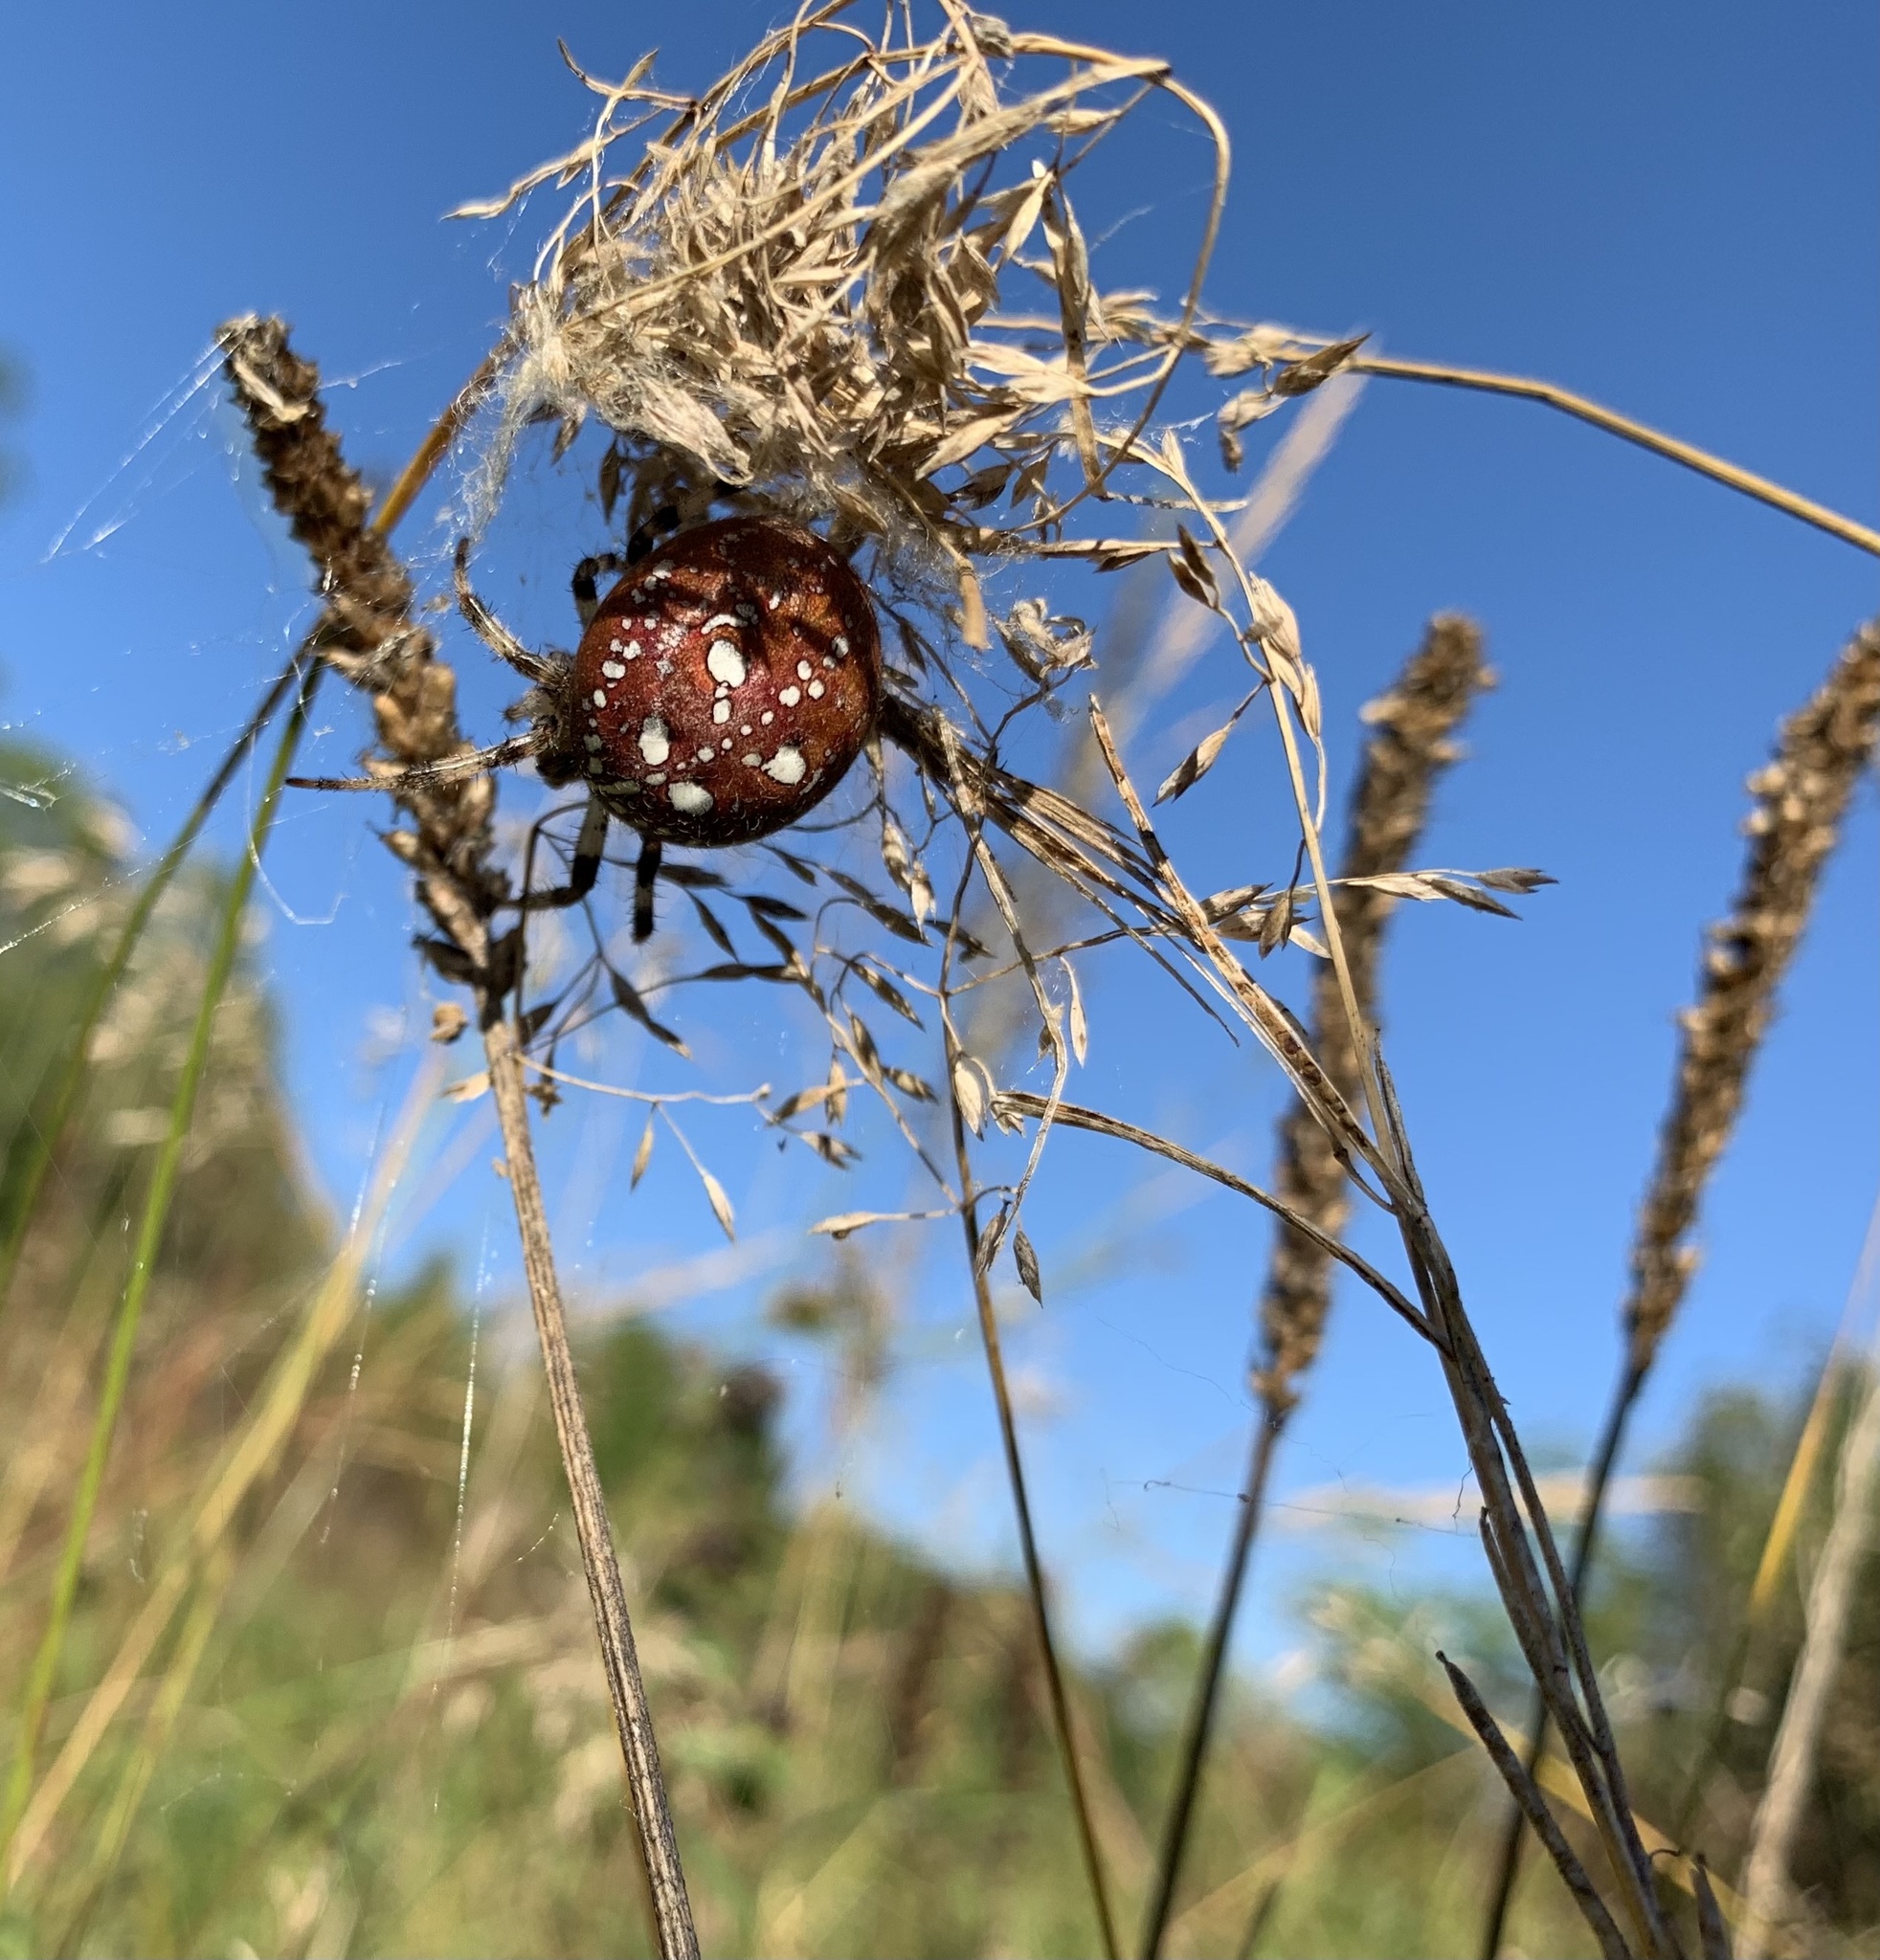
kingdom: Animalia
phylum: Arthropoda
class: Arachnida
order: Araneae
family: Araneidae
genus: Araneus
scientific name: Araneus quadratus
